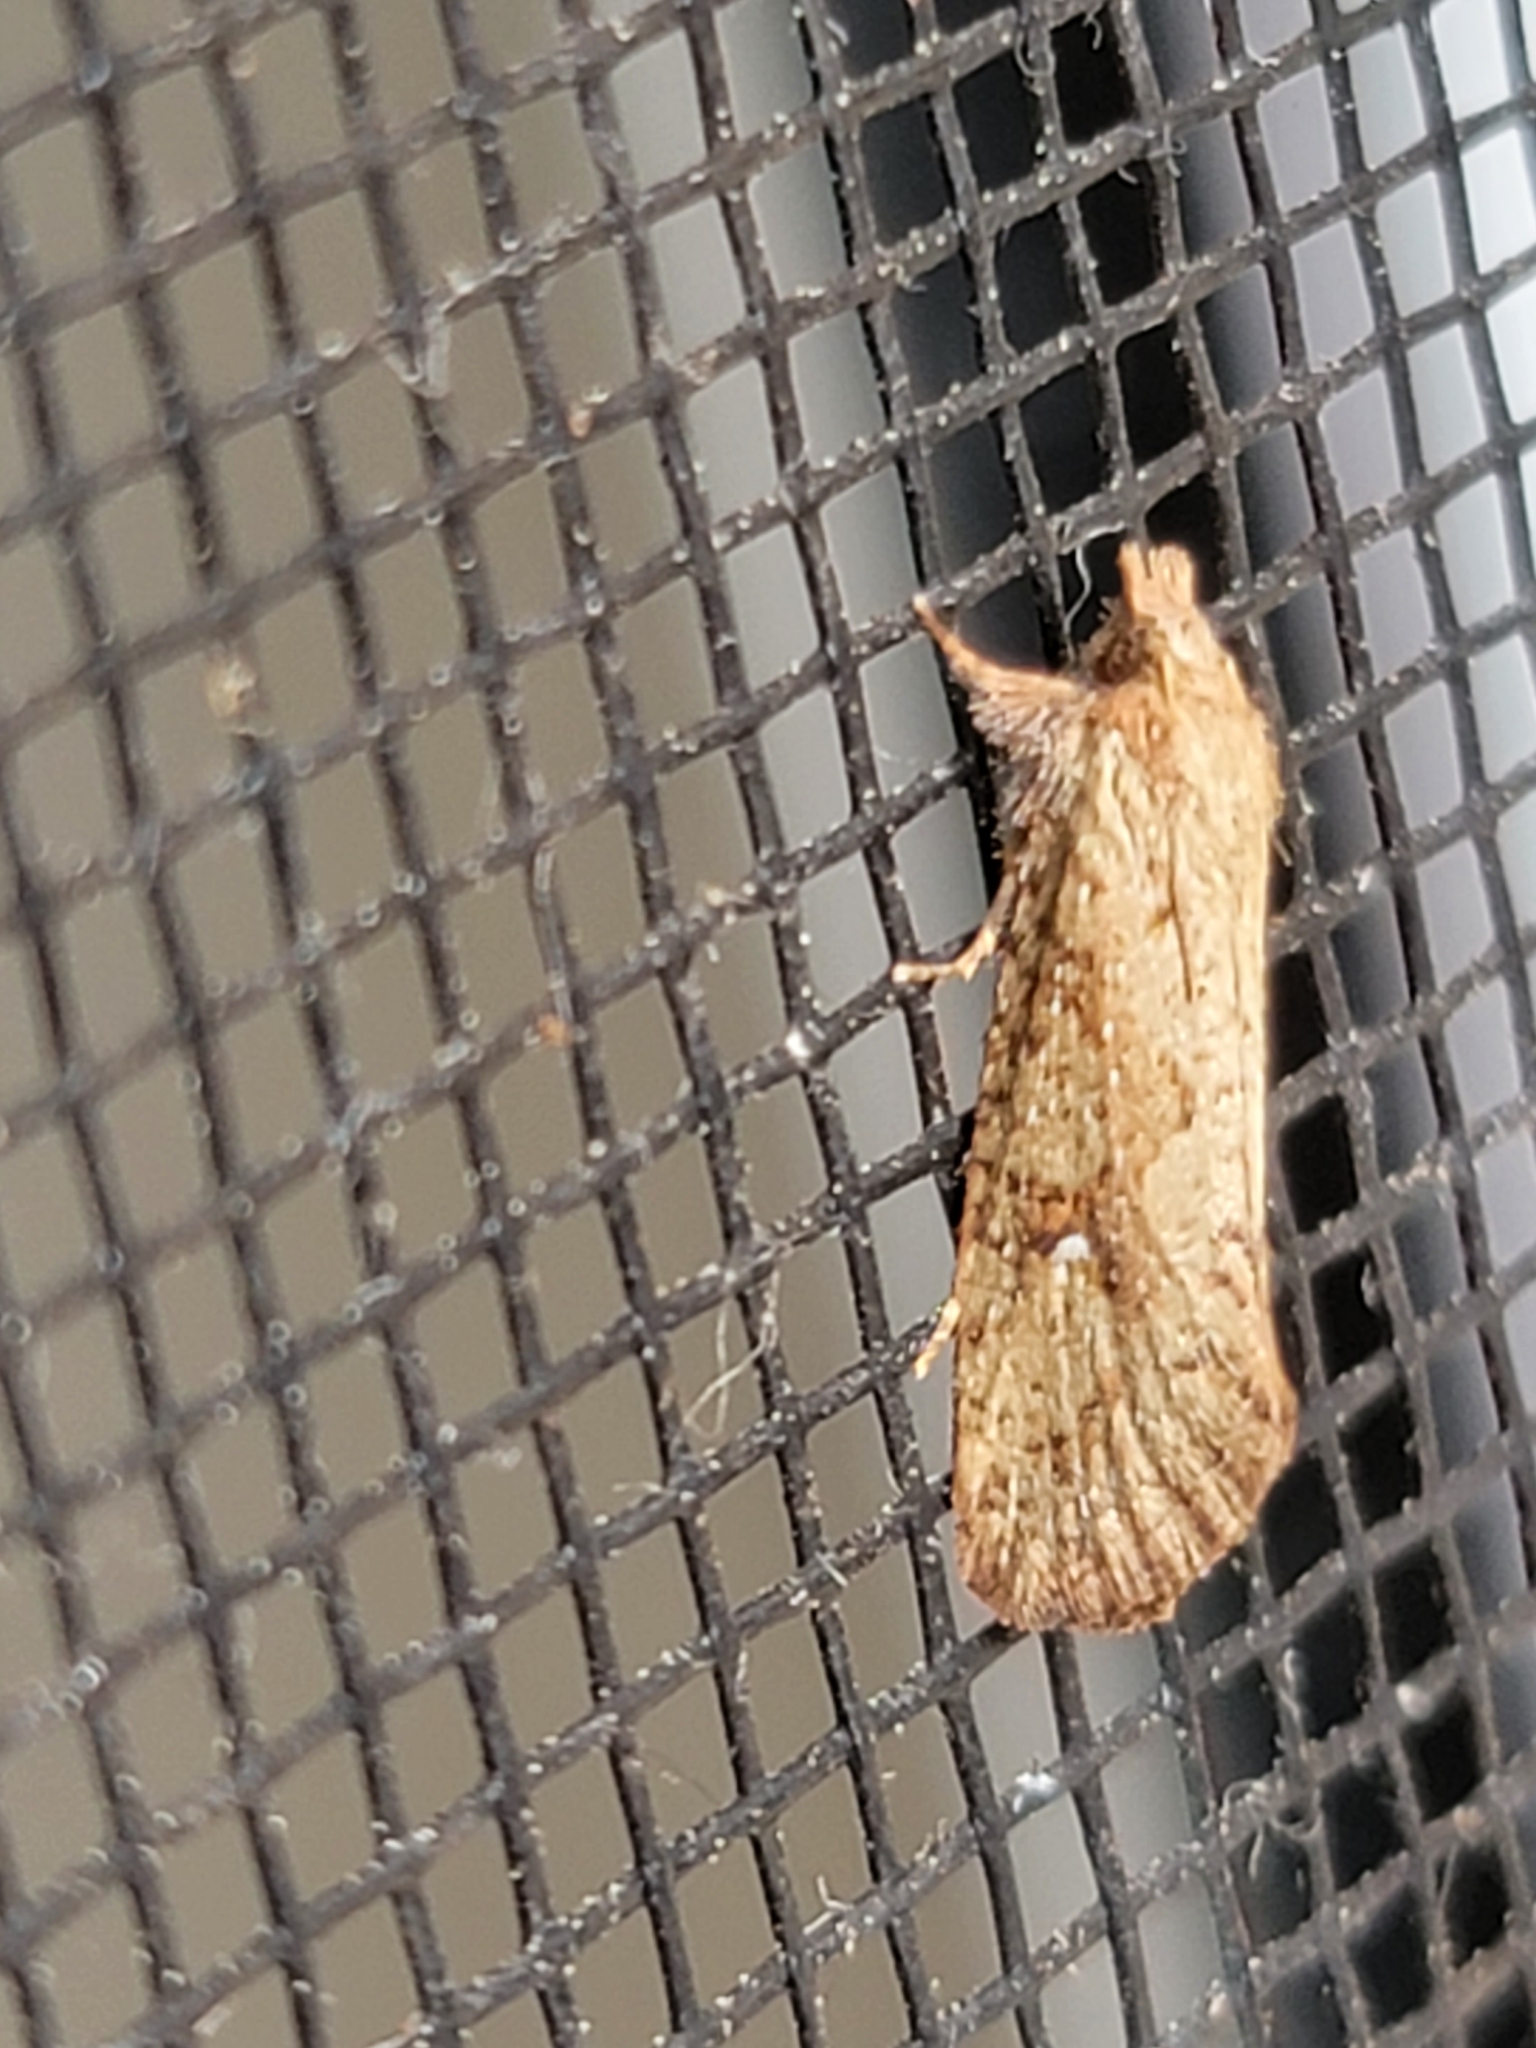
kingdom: Animalia
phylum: Arthropoda
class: Insecta
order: Lepidoptera
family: Tineidae
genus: Acrolophus
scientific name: Acrolophus walsinghami
